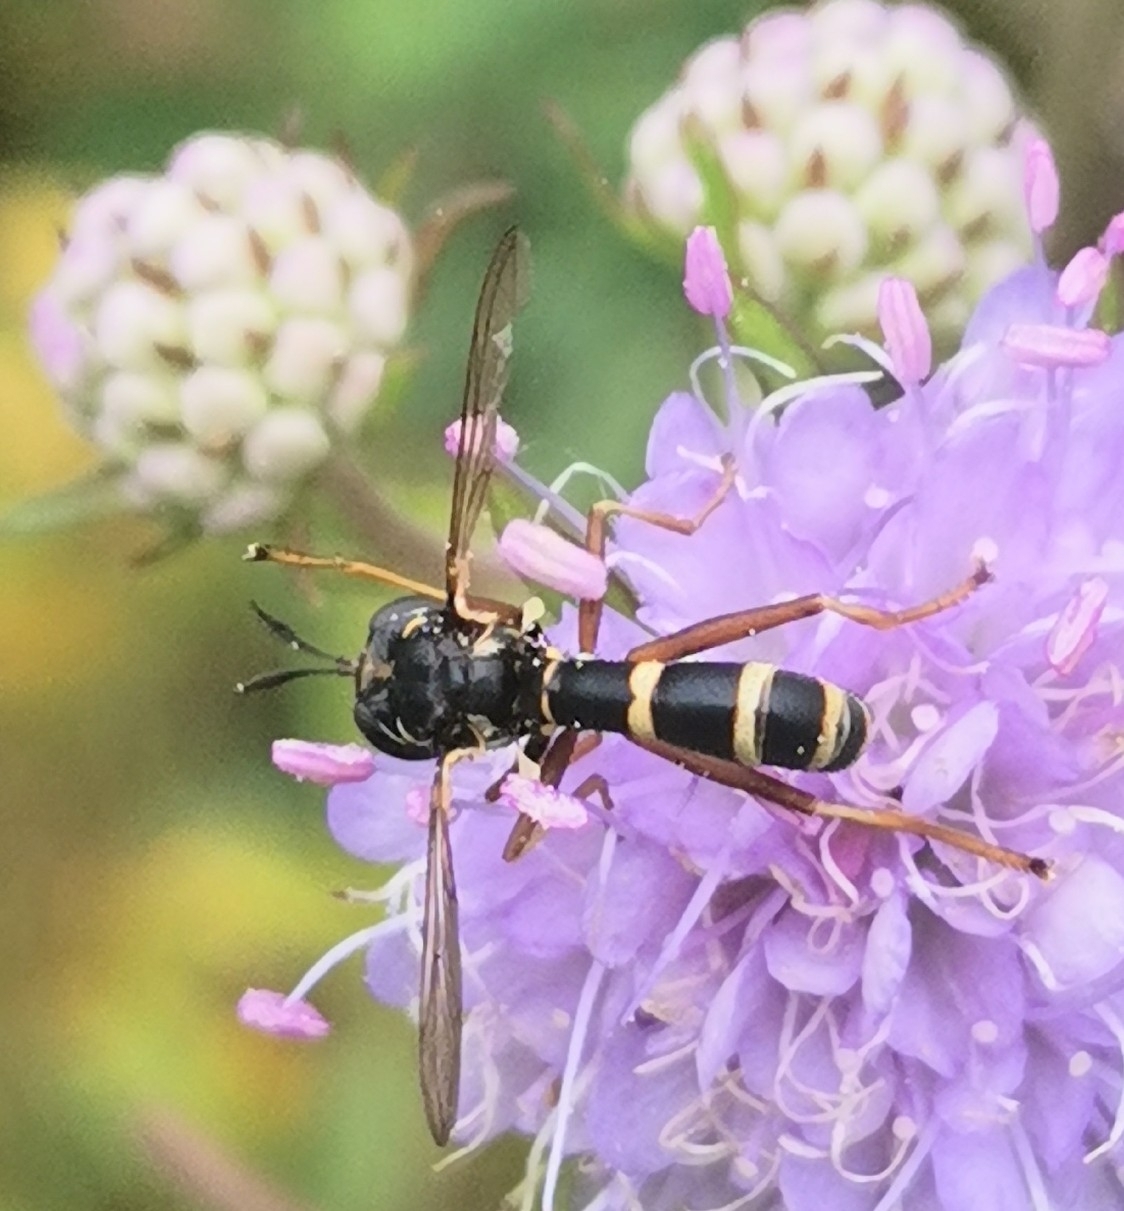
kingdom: Animalia
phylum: Arthropoda
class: Insecta
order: Diptera
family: Conopidae
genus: Conops
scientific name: Conops quadrifasciatus
